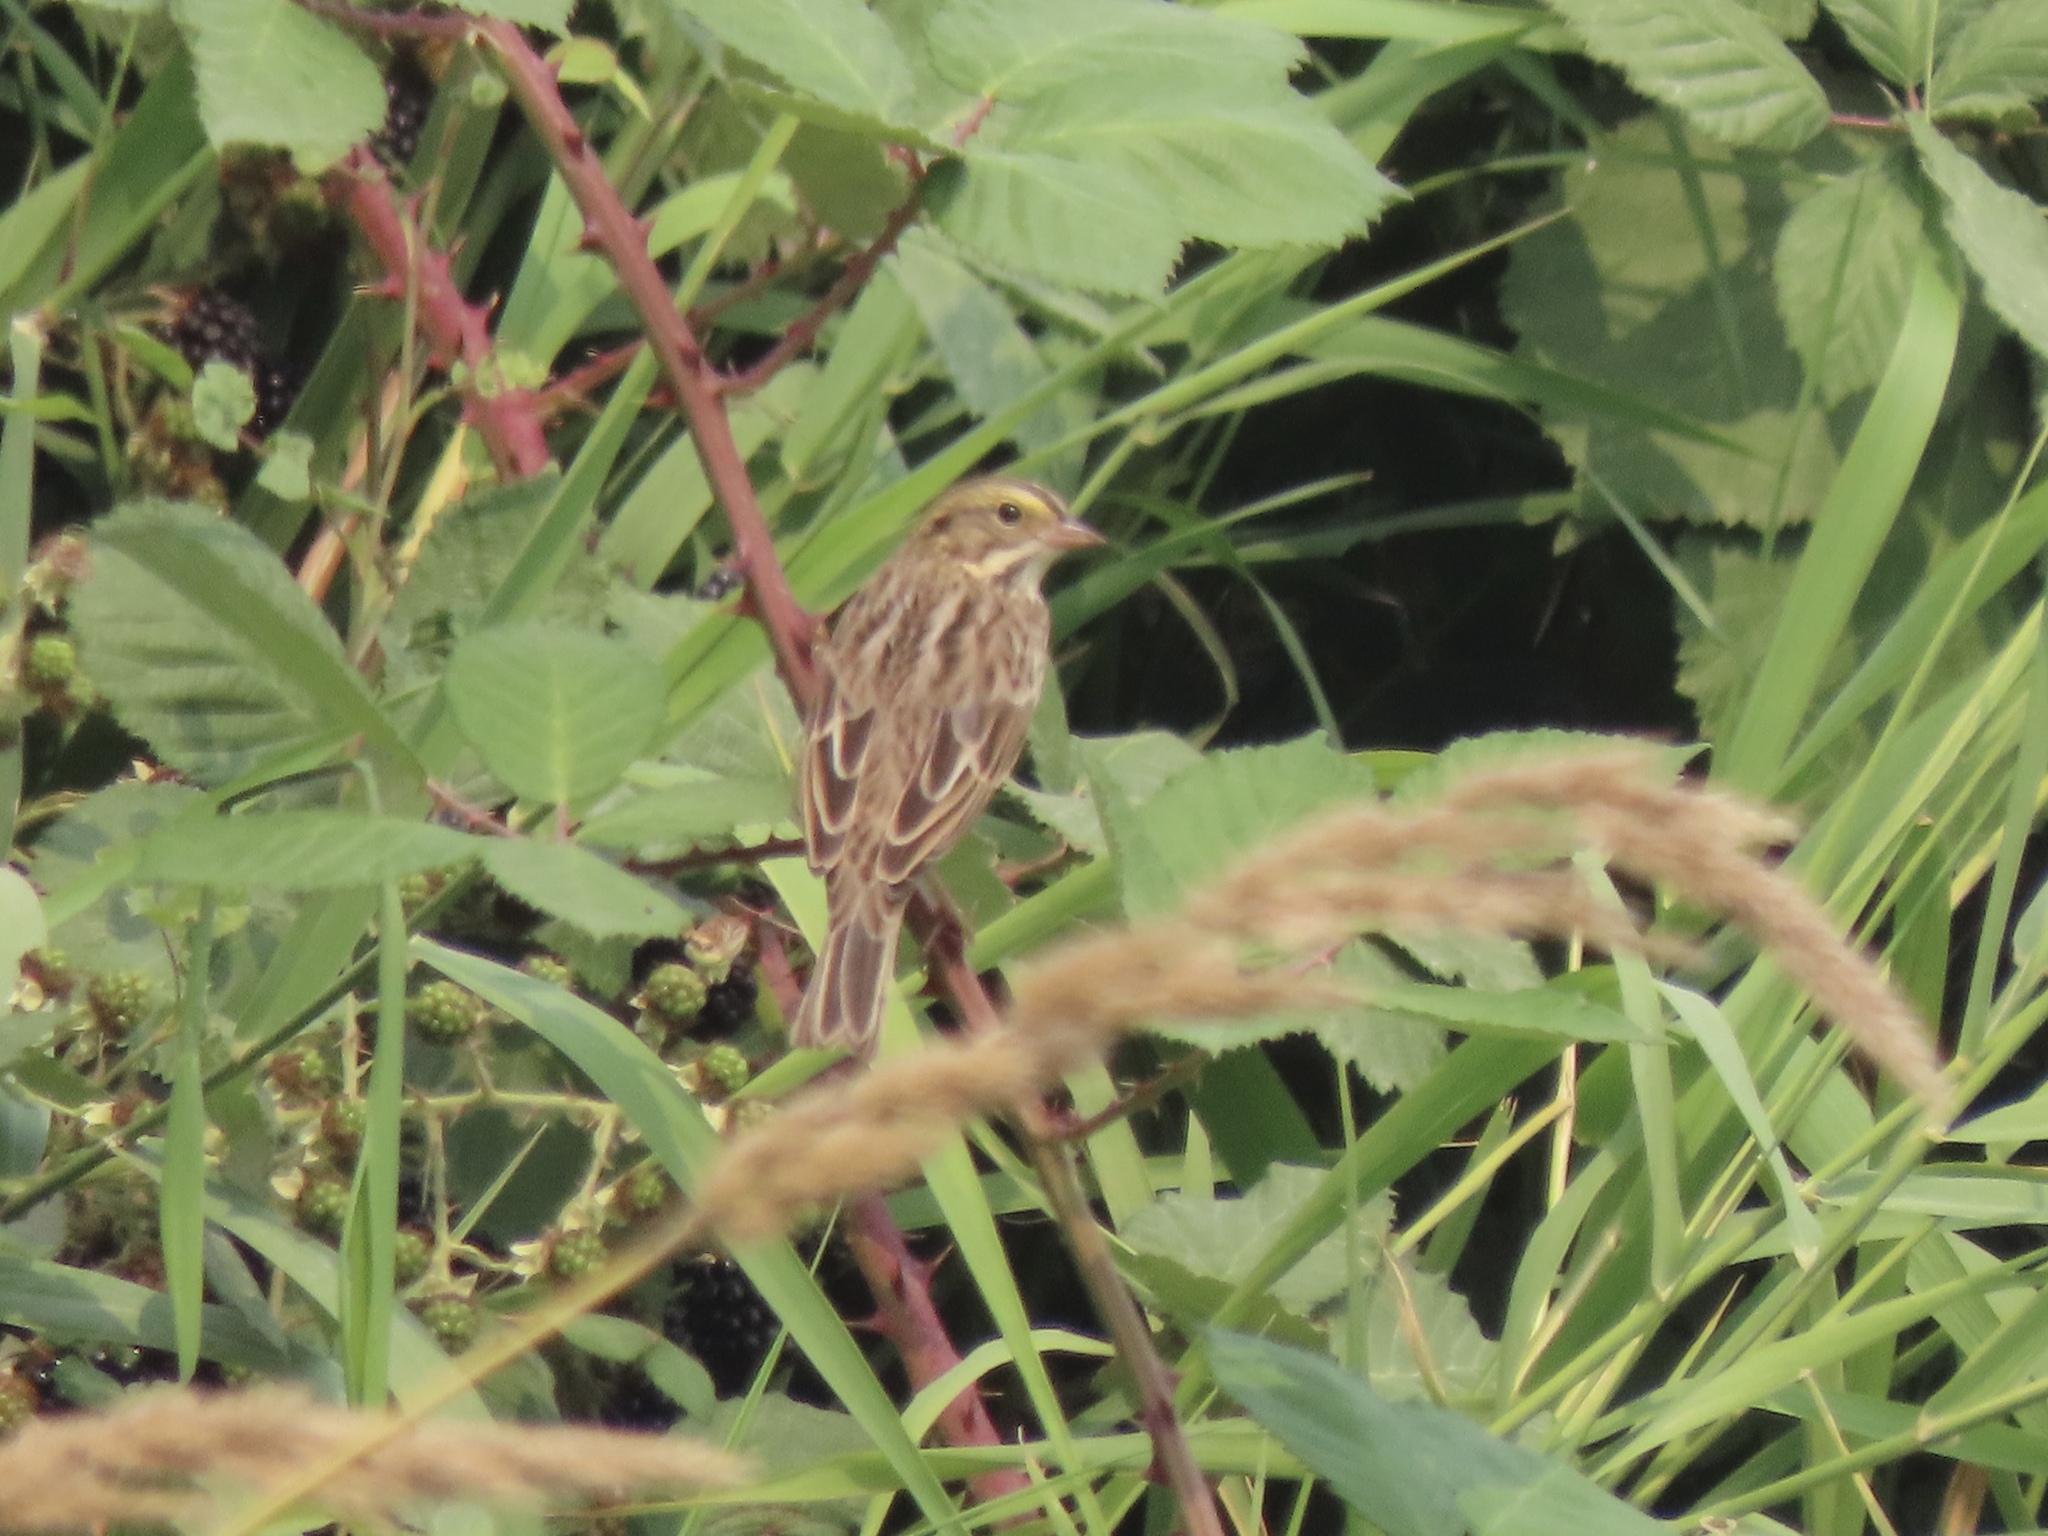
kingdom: Animalia
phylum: Chordata
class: Aves
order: Passeriformes
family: Passerellidae
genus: Passerculus
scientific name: Passerculus sandwichensis
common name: Savannah sparrow
